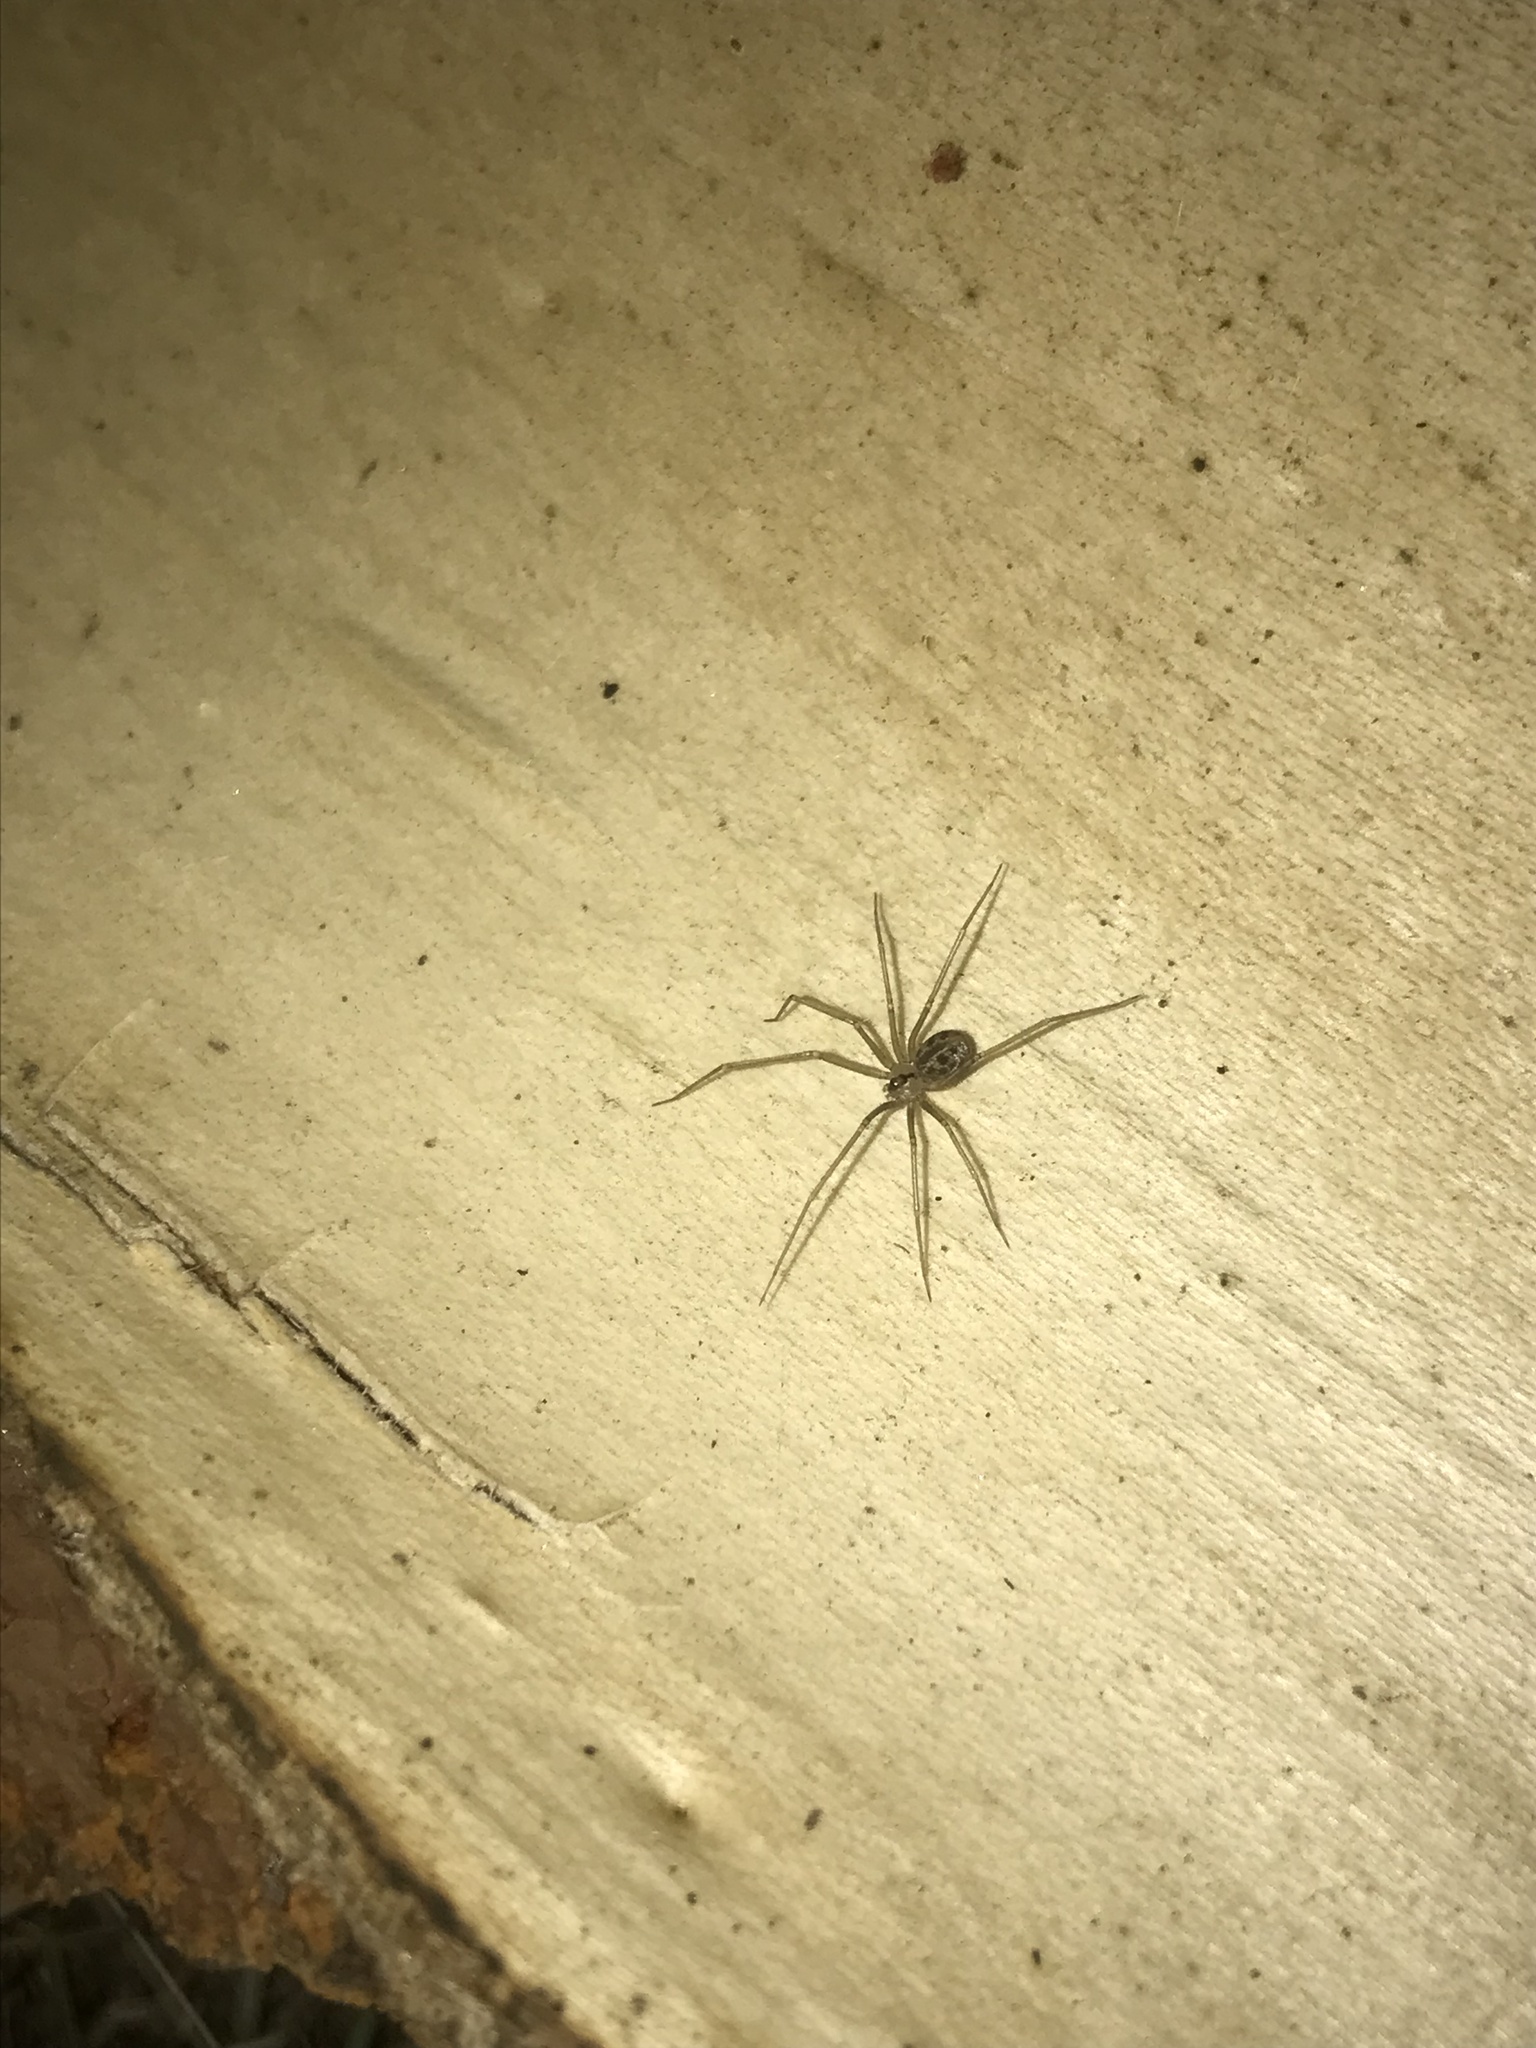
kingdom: Animalia
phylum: Arthropoda
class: Arachnida
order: Araneae
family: Pholcidae
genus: Psilochorus
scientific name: Psilochorus hesperus
